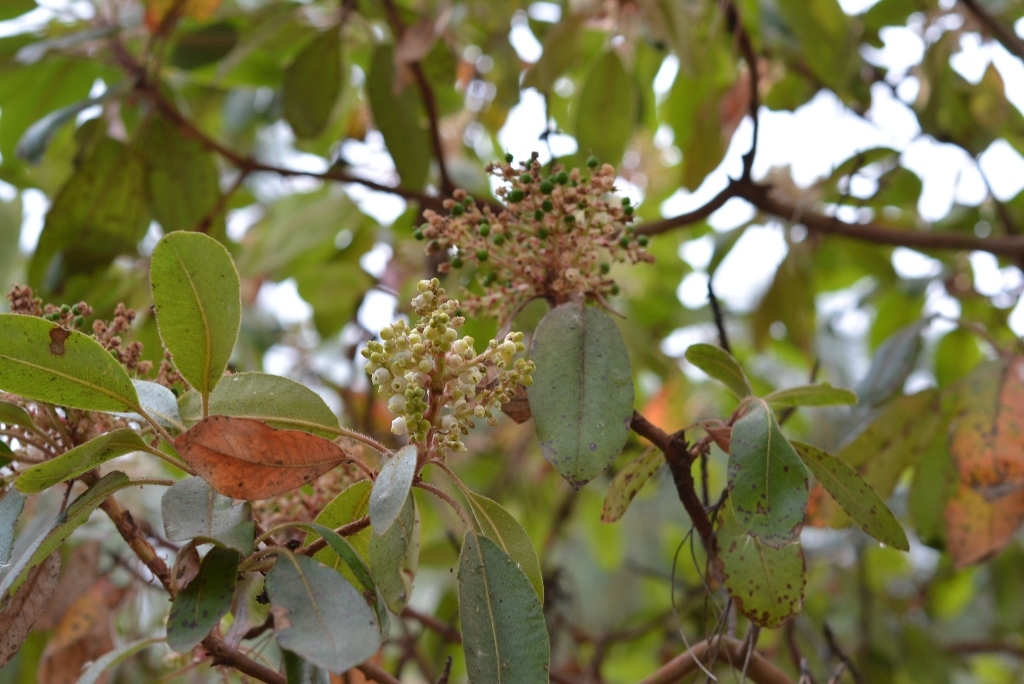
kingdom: Plantae
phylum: Tracheophyta
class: Magnoliopsida
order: Ericales
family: Ericaceae
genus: Arbutus
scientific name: Arbutus xalapensis
